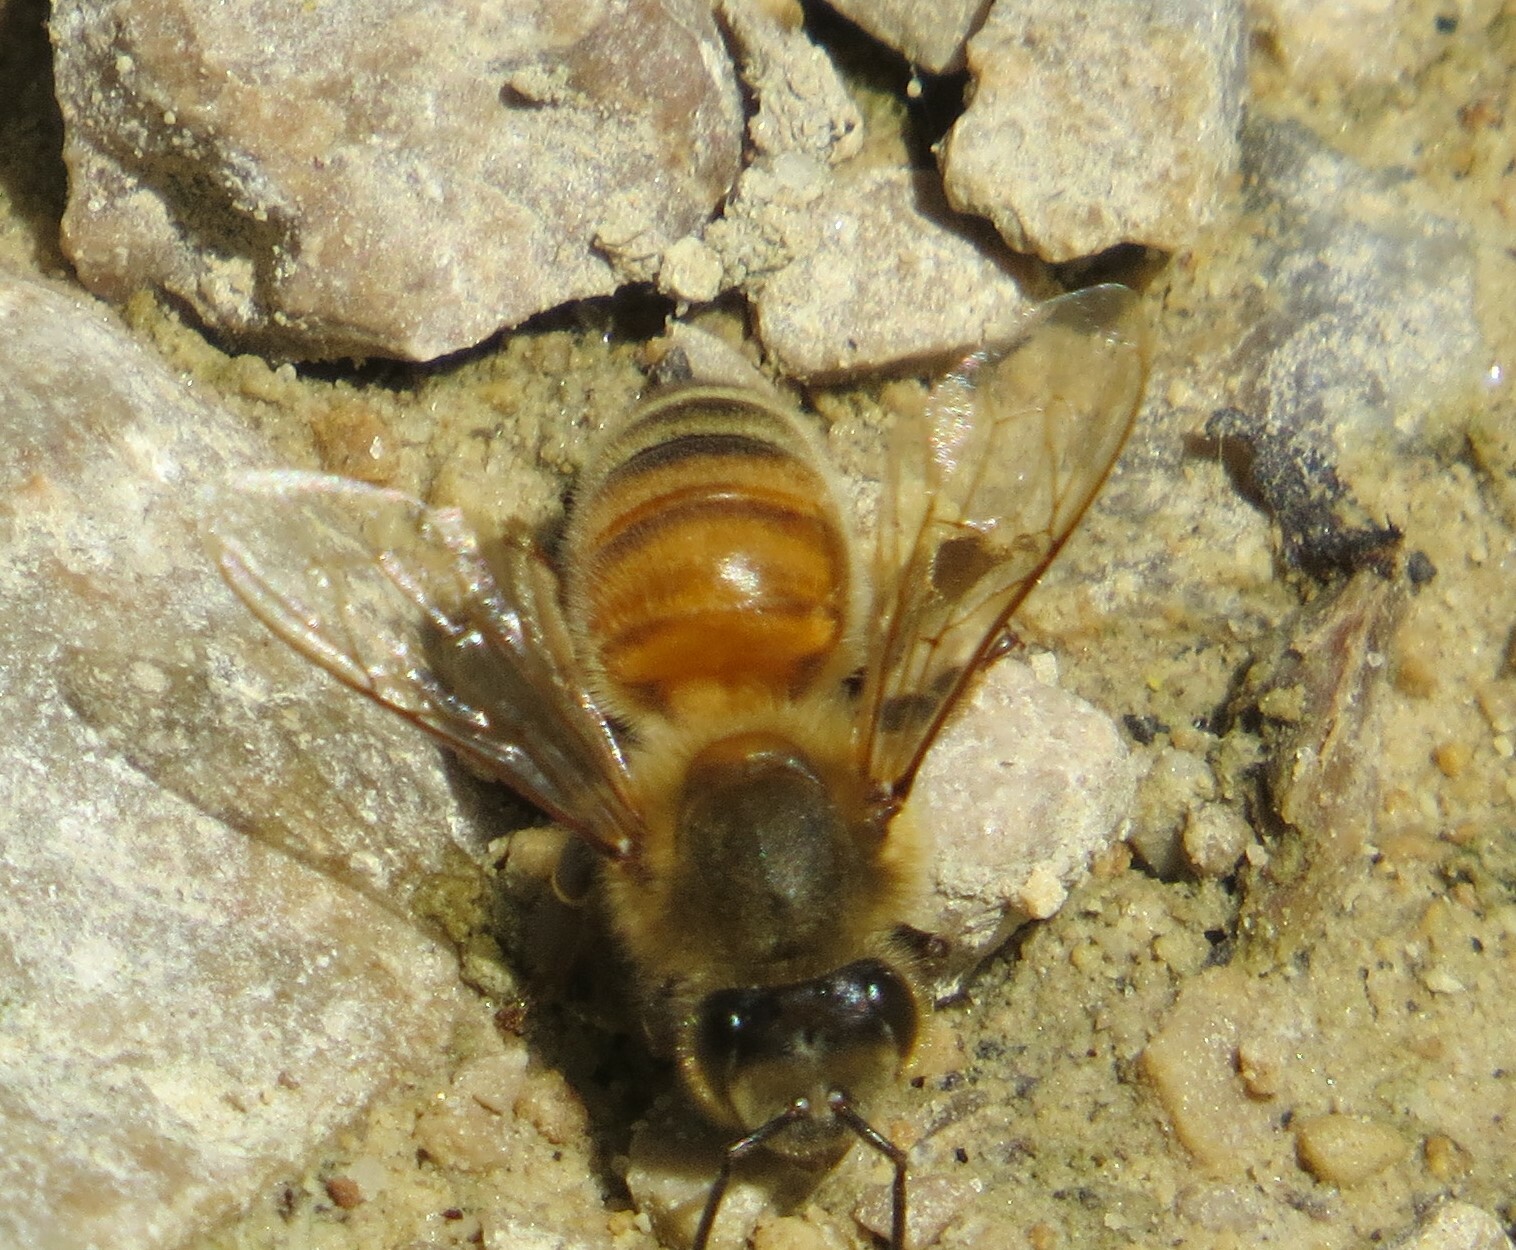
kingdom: Animalia
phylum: Arthropoda
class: Insecta
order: Hymenoptera
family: Apidae
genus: Apis
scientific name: Apis mellifera
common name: Honey bee
